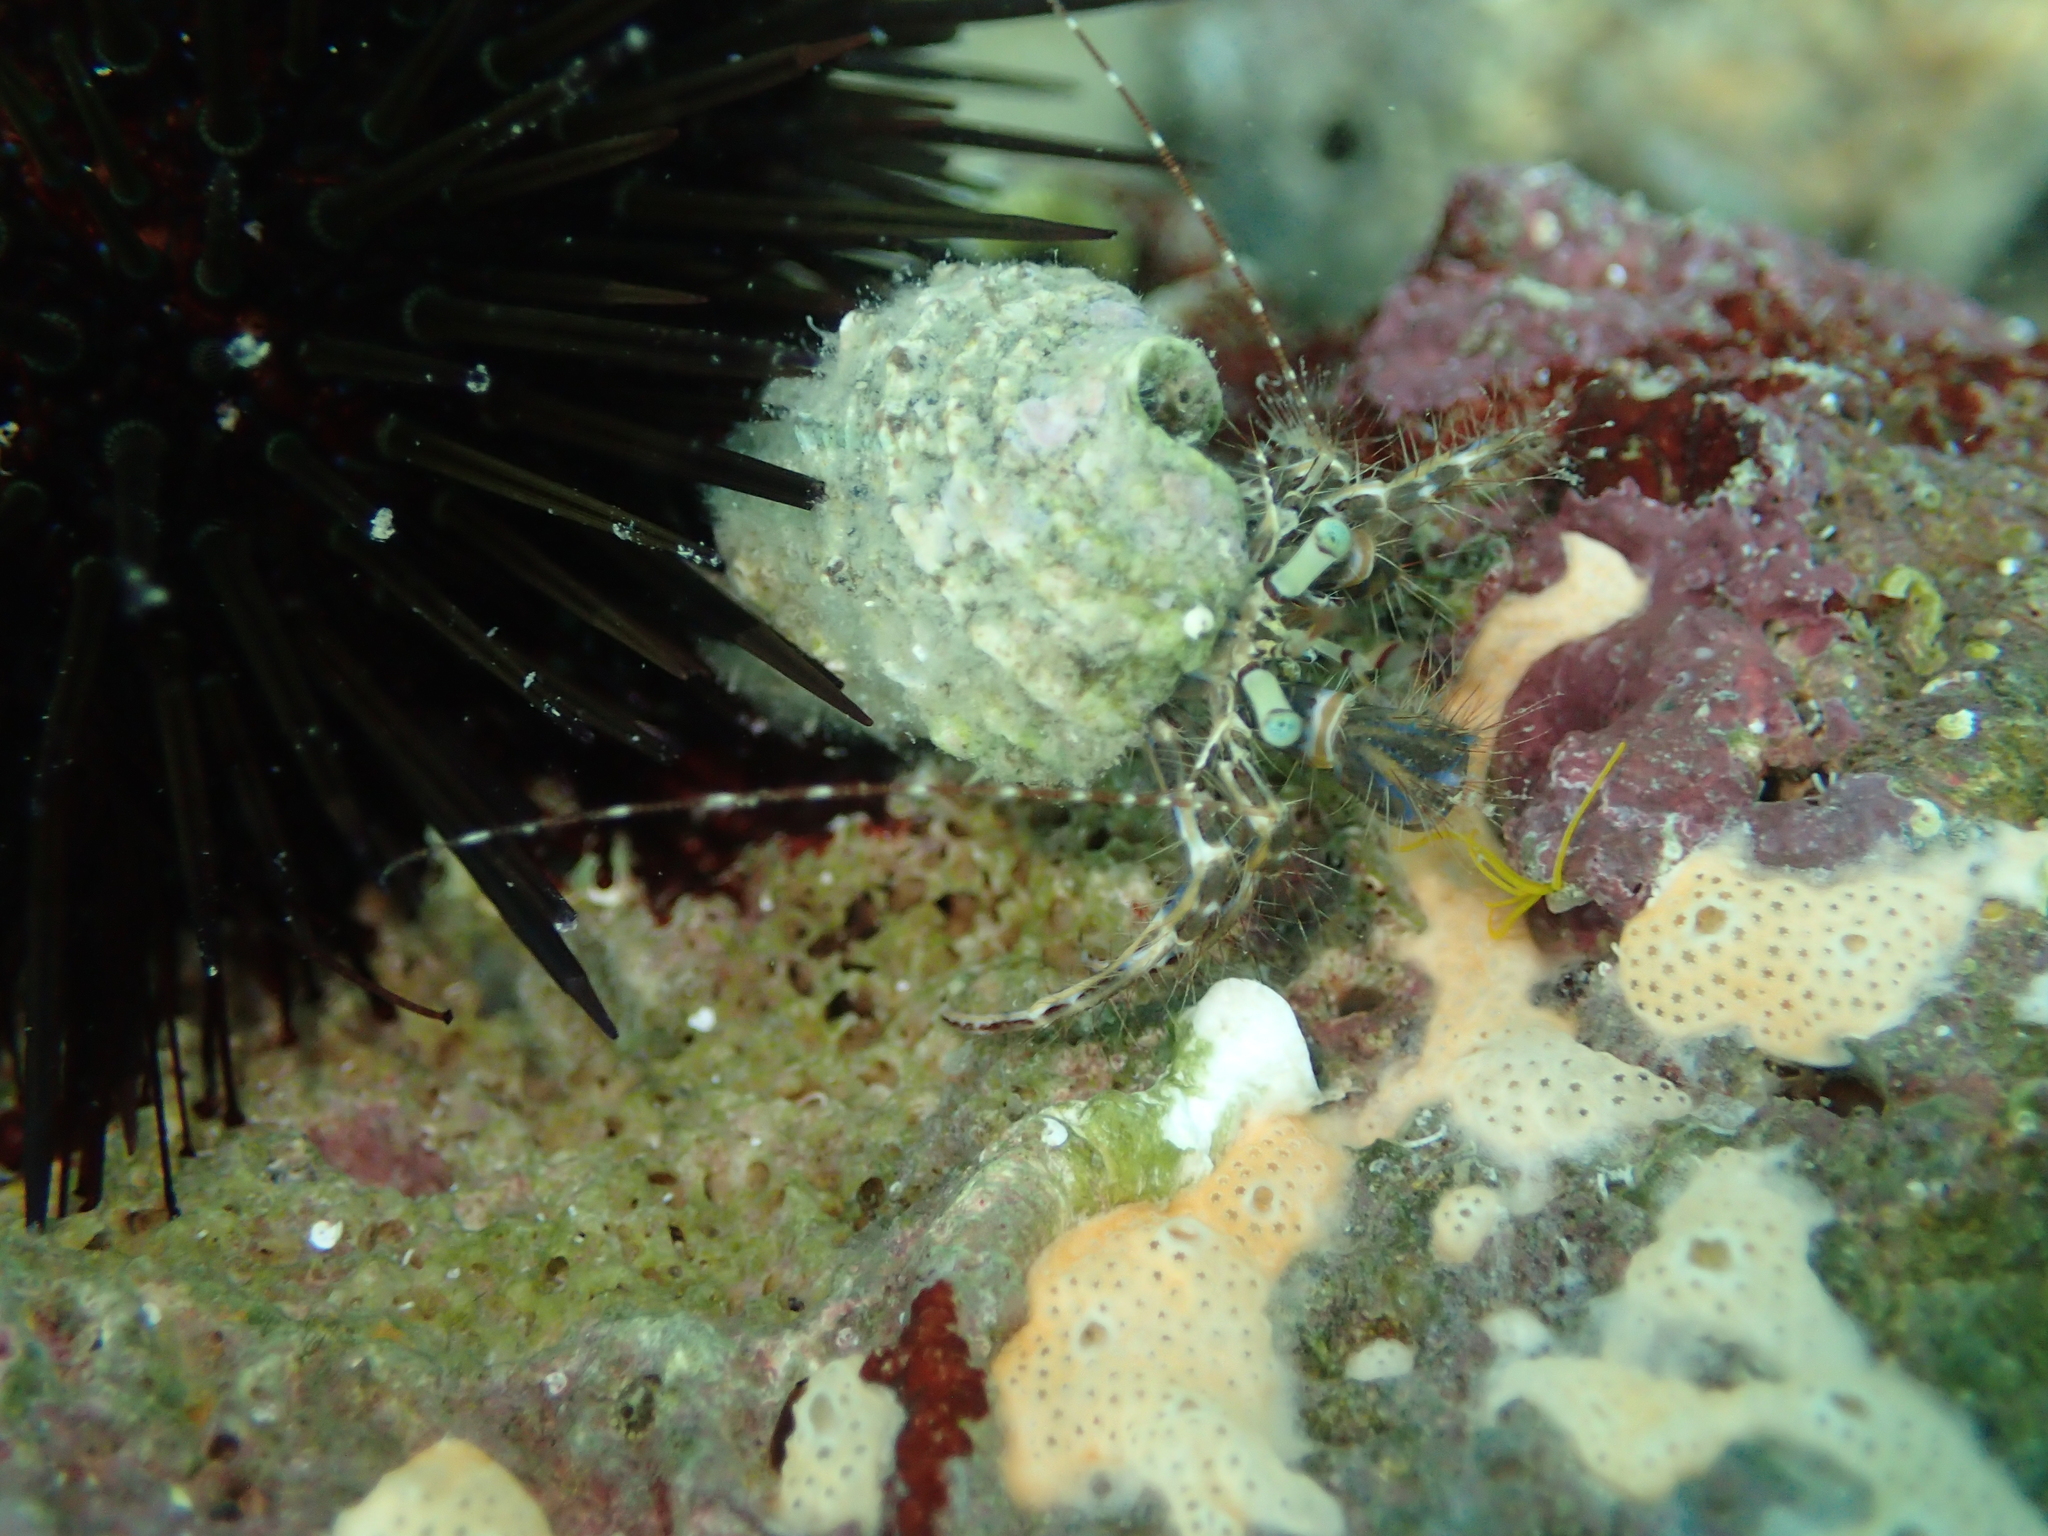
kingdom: Animalia
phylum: Arthropoda
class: Malacostraca
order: Decapoda
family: Paguridae
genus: Pagurus
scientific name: Pagurus anachoretus
